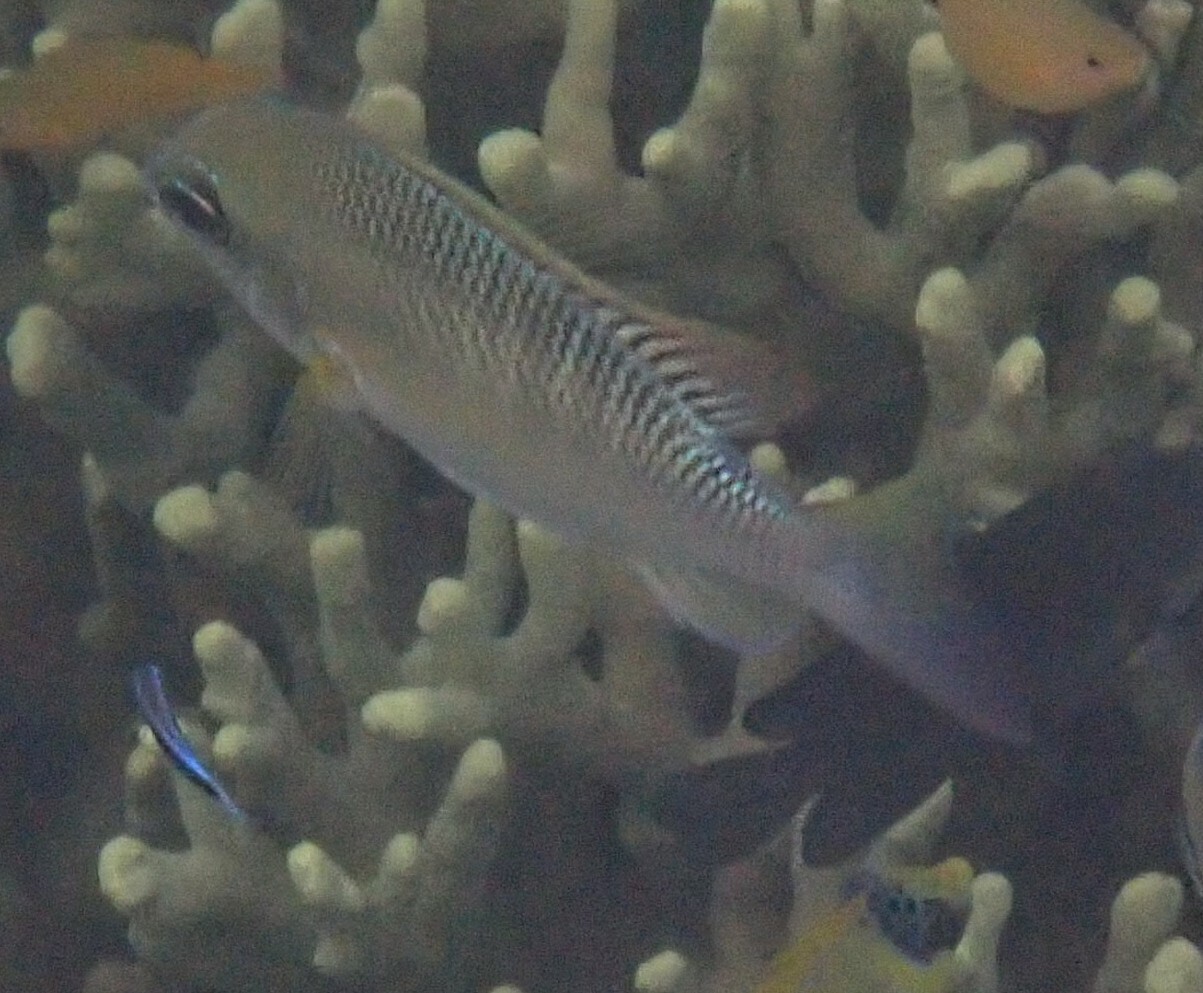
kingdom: Animalia
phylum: Chordata
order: Perciformes
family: Nemipteridae
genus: Scolopsis
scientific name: Scolopsis margaritifera
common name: Pearly monocle bream
